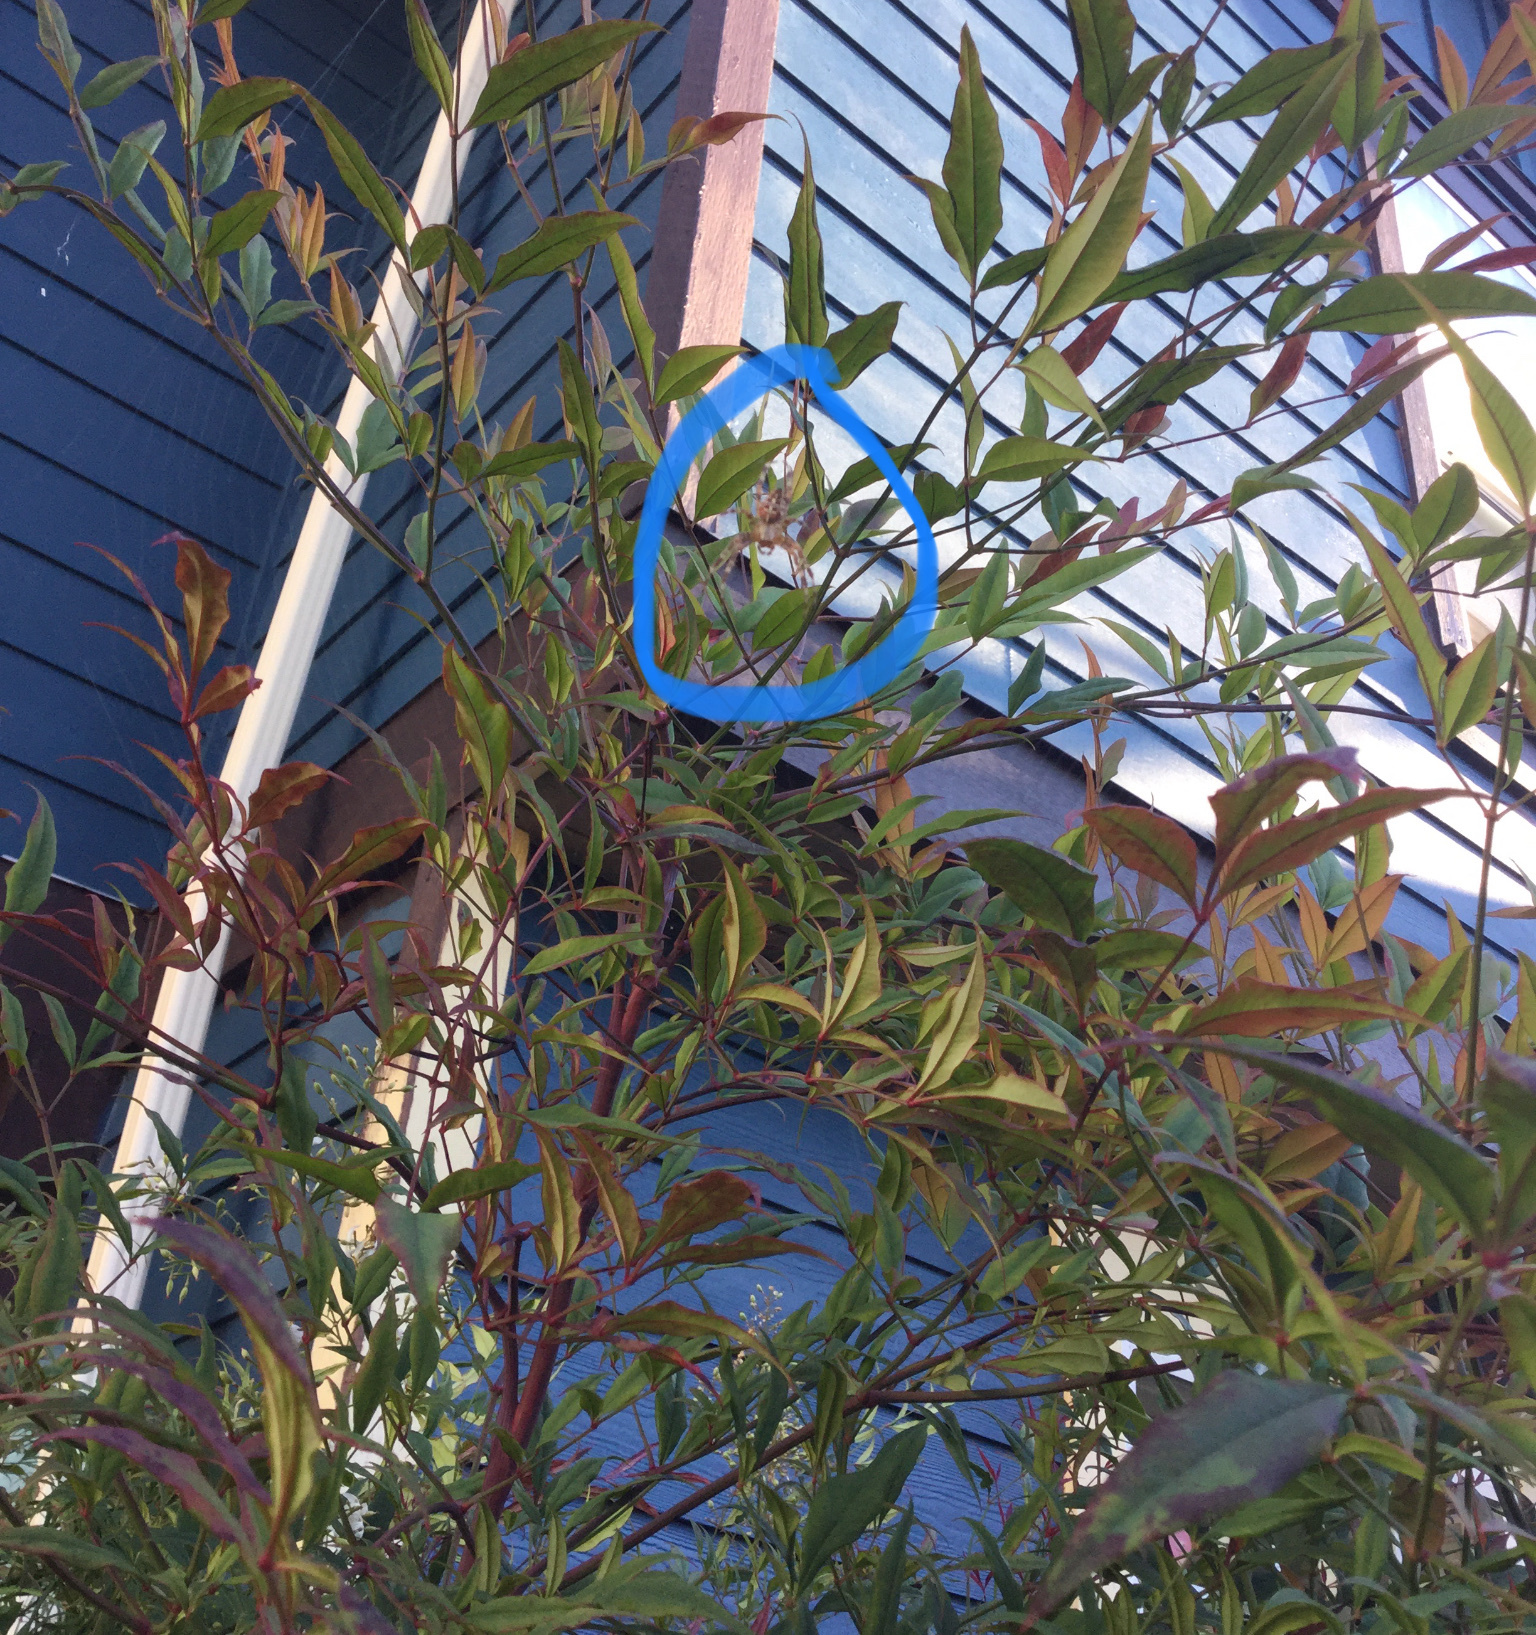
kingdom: Animalia
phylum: Arthropoda
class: Arachnida
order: Araneae
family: Araneidae
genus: Araneus
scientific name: Araneus diadematus
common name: Cross orbweaver
